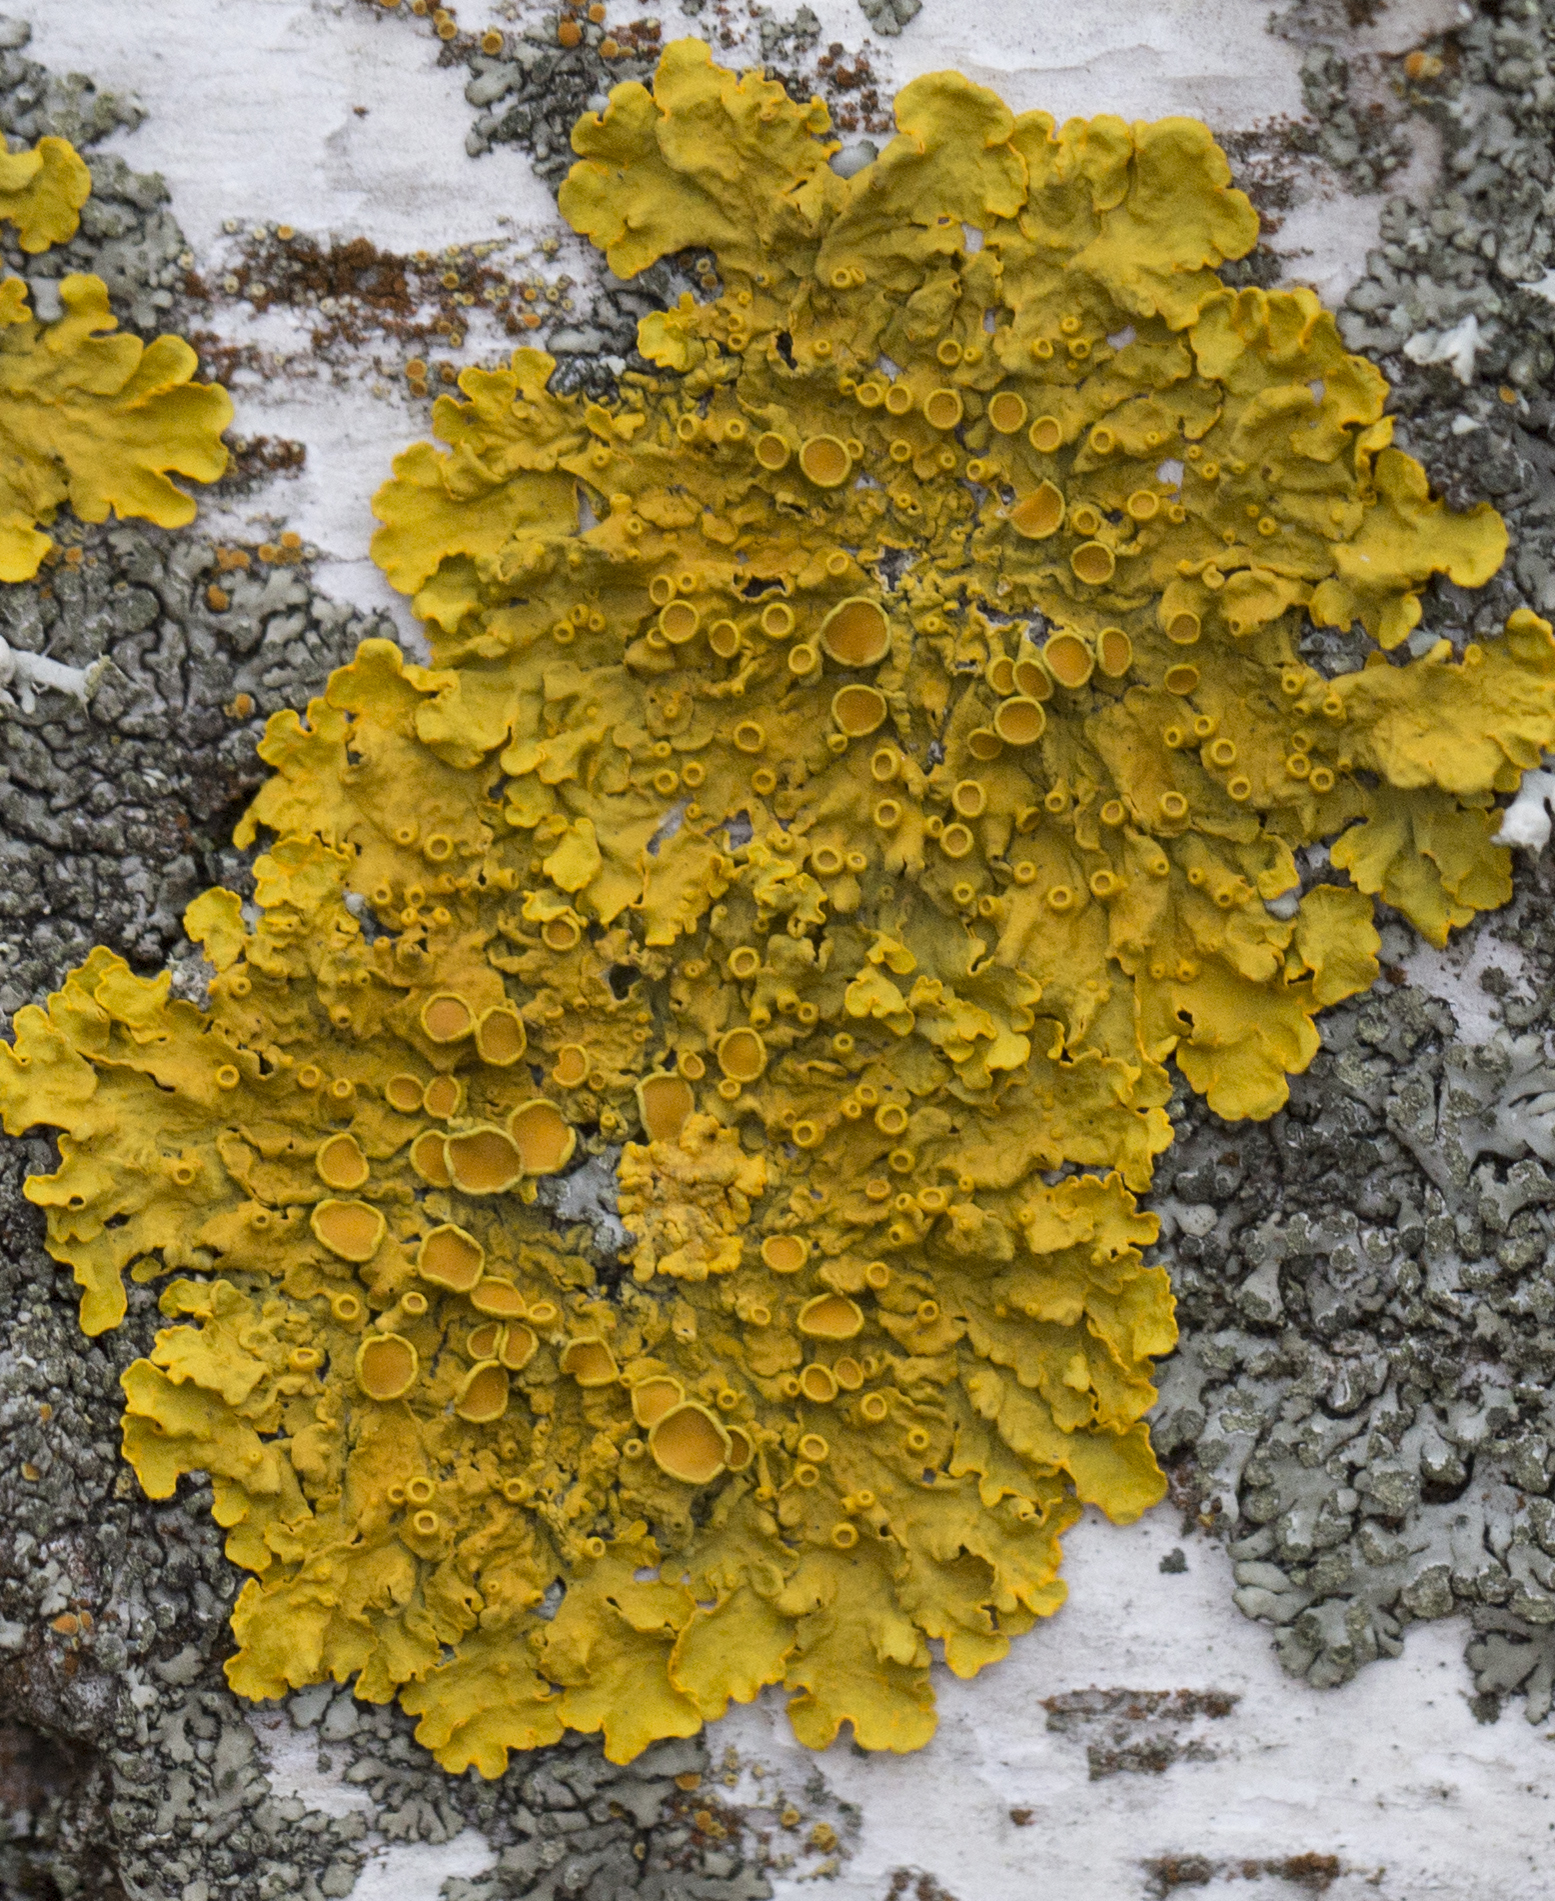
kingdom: Fungi
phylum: Ascomycota
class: Lecanoromycetes
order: Teloschistales
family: Teloschistaceae
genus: Xanthoria
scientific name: Xanthoria parietina
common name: Common orange lichen
